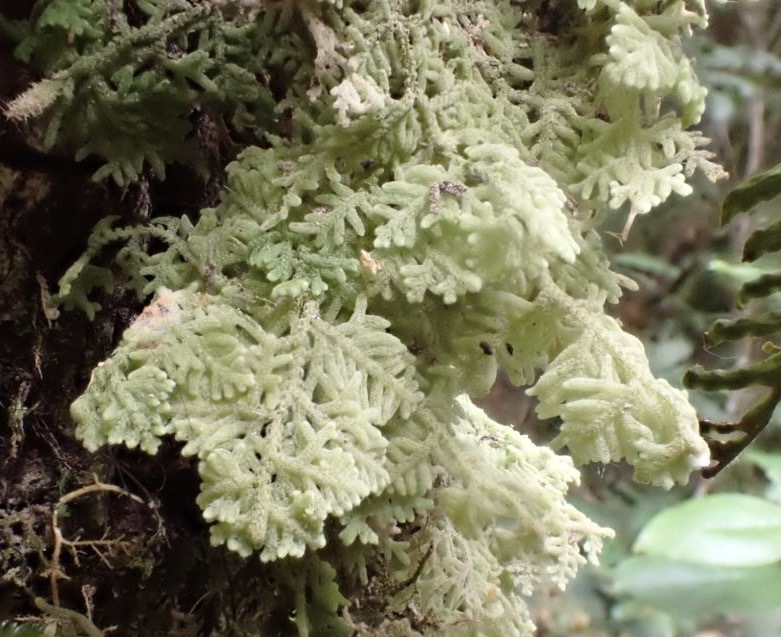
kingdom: Plantae
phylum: Marchantiophyta
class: Jungermanniopsida
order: Jungermanniales
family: Trichocoleaceae
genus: Trichocolea
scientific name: Trichocolea mollissima
